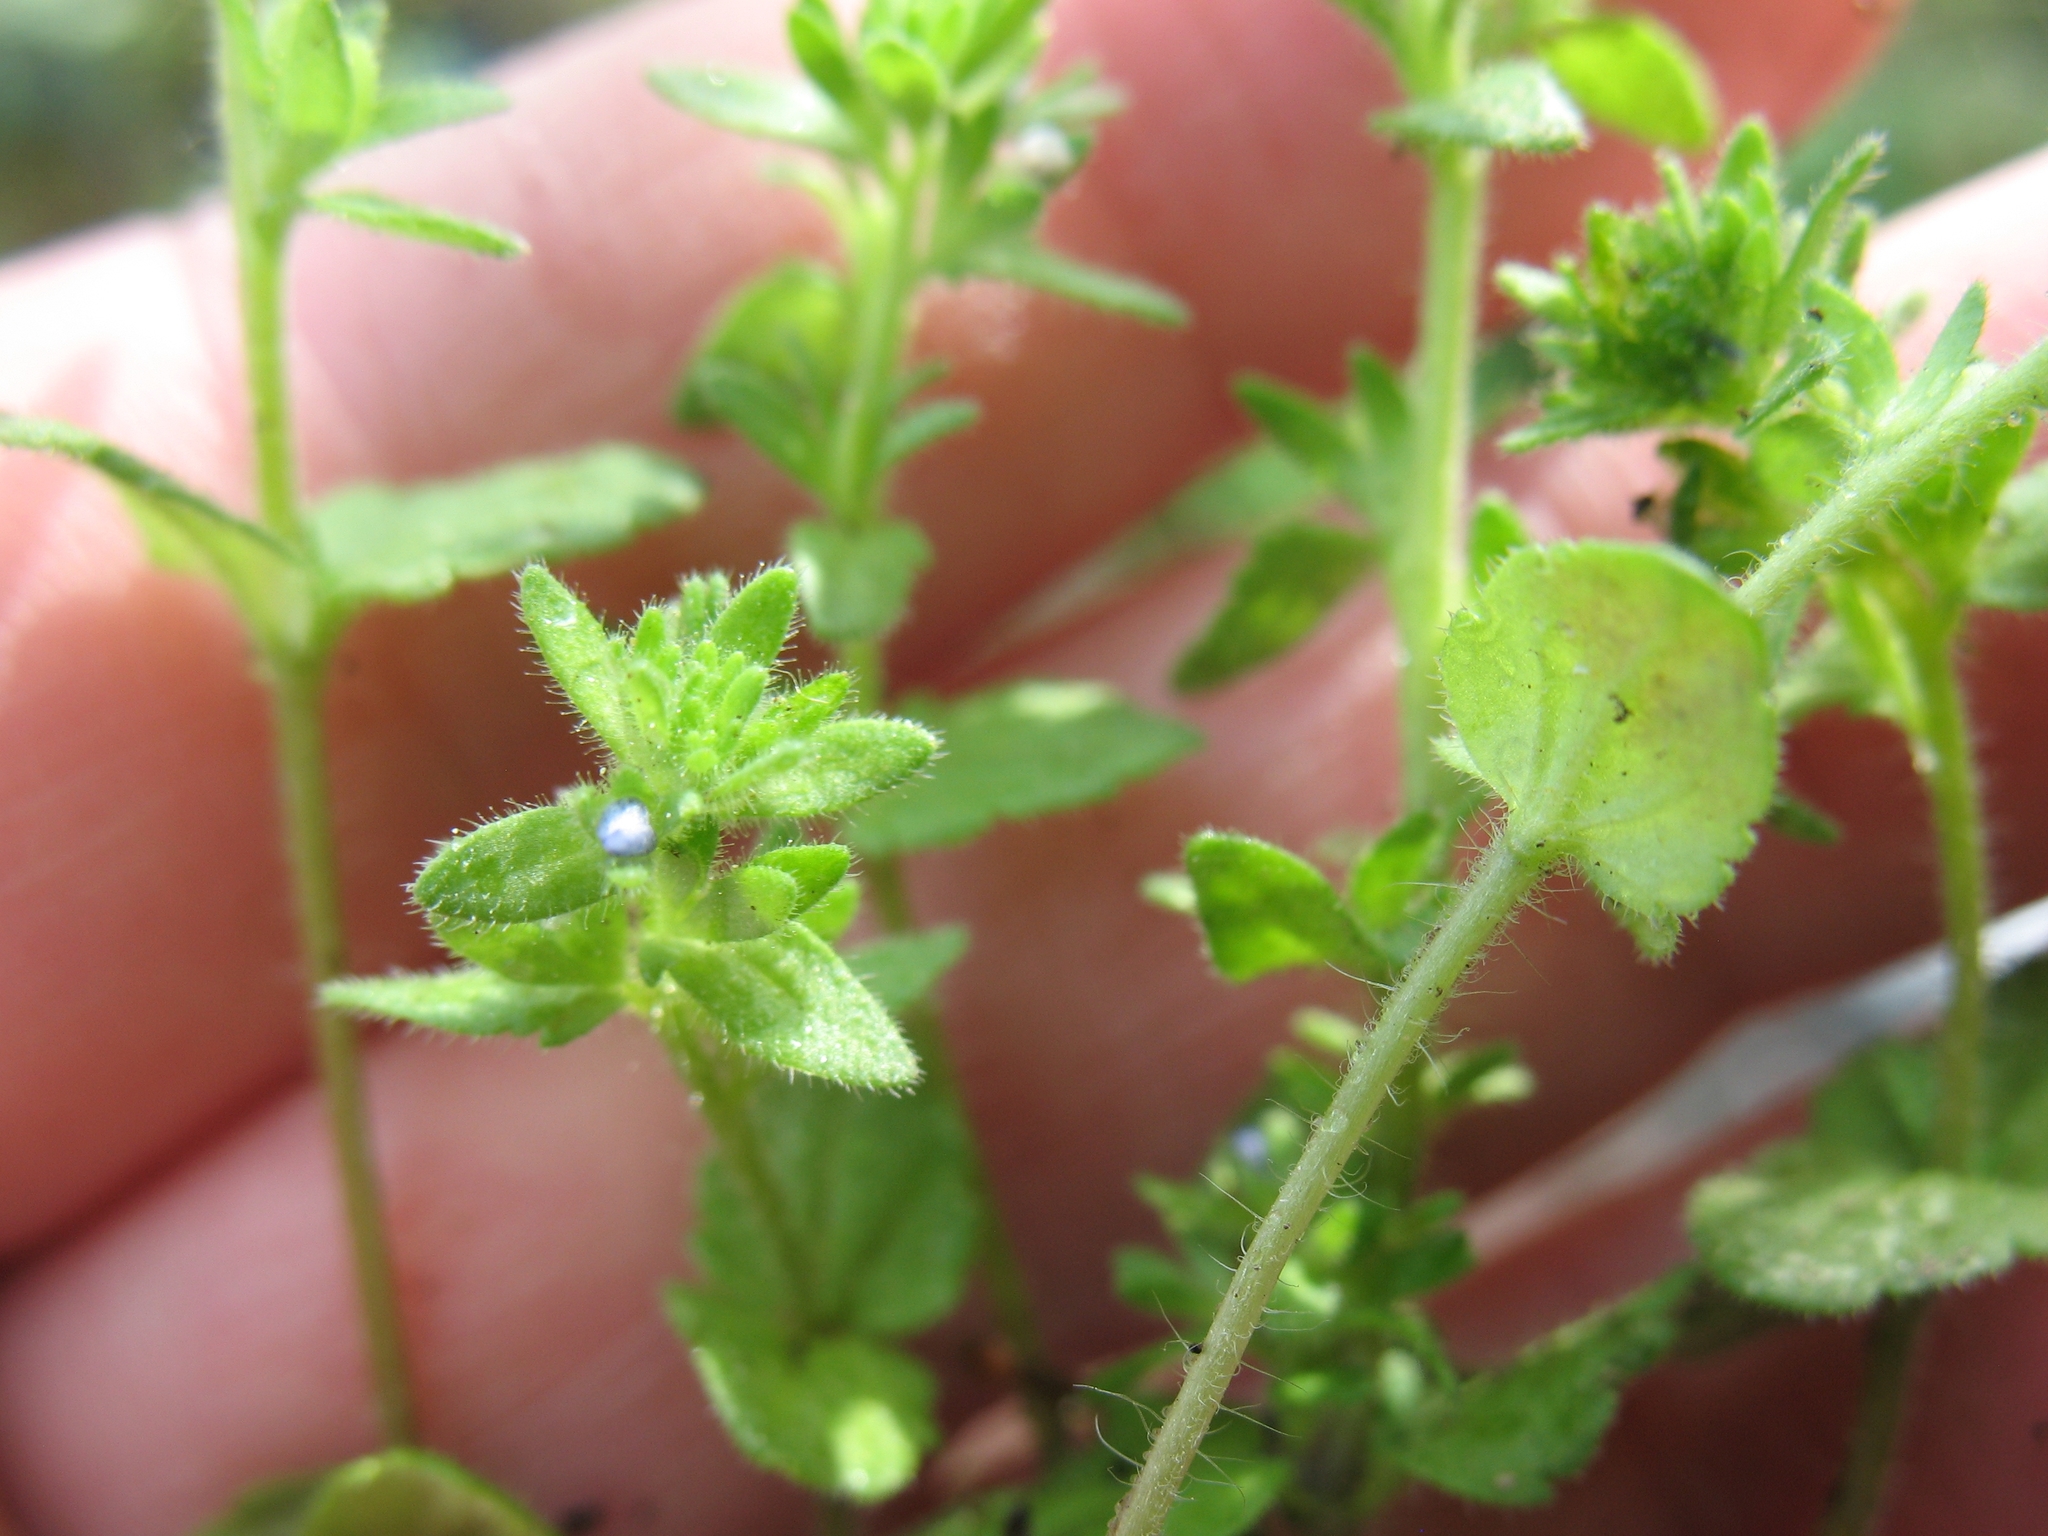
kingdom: Plantae
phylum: Tracheophyta
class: Magnoliopsida
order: Lamiales
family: Plantaginaceae
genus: Veronica
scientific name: Veronica arvensis
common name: Corn speedwell
